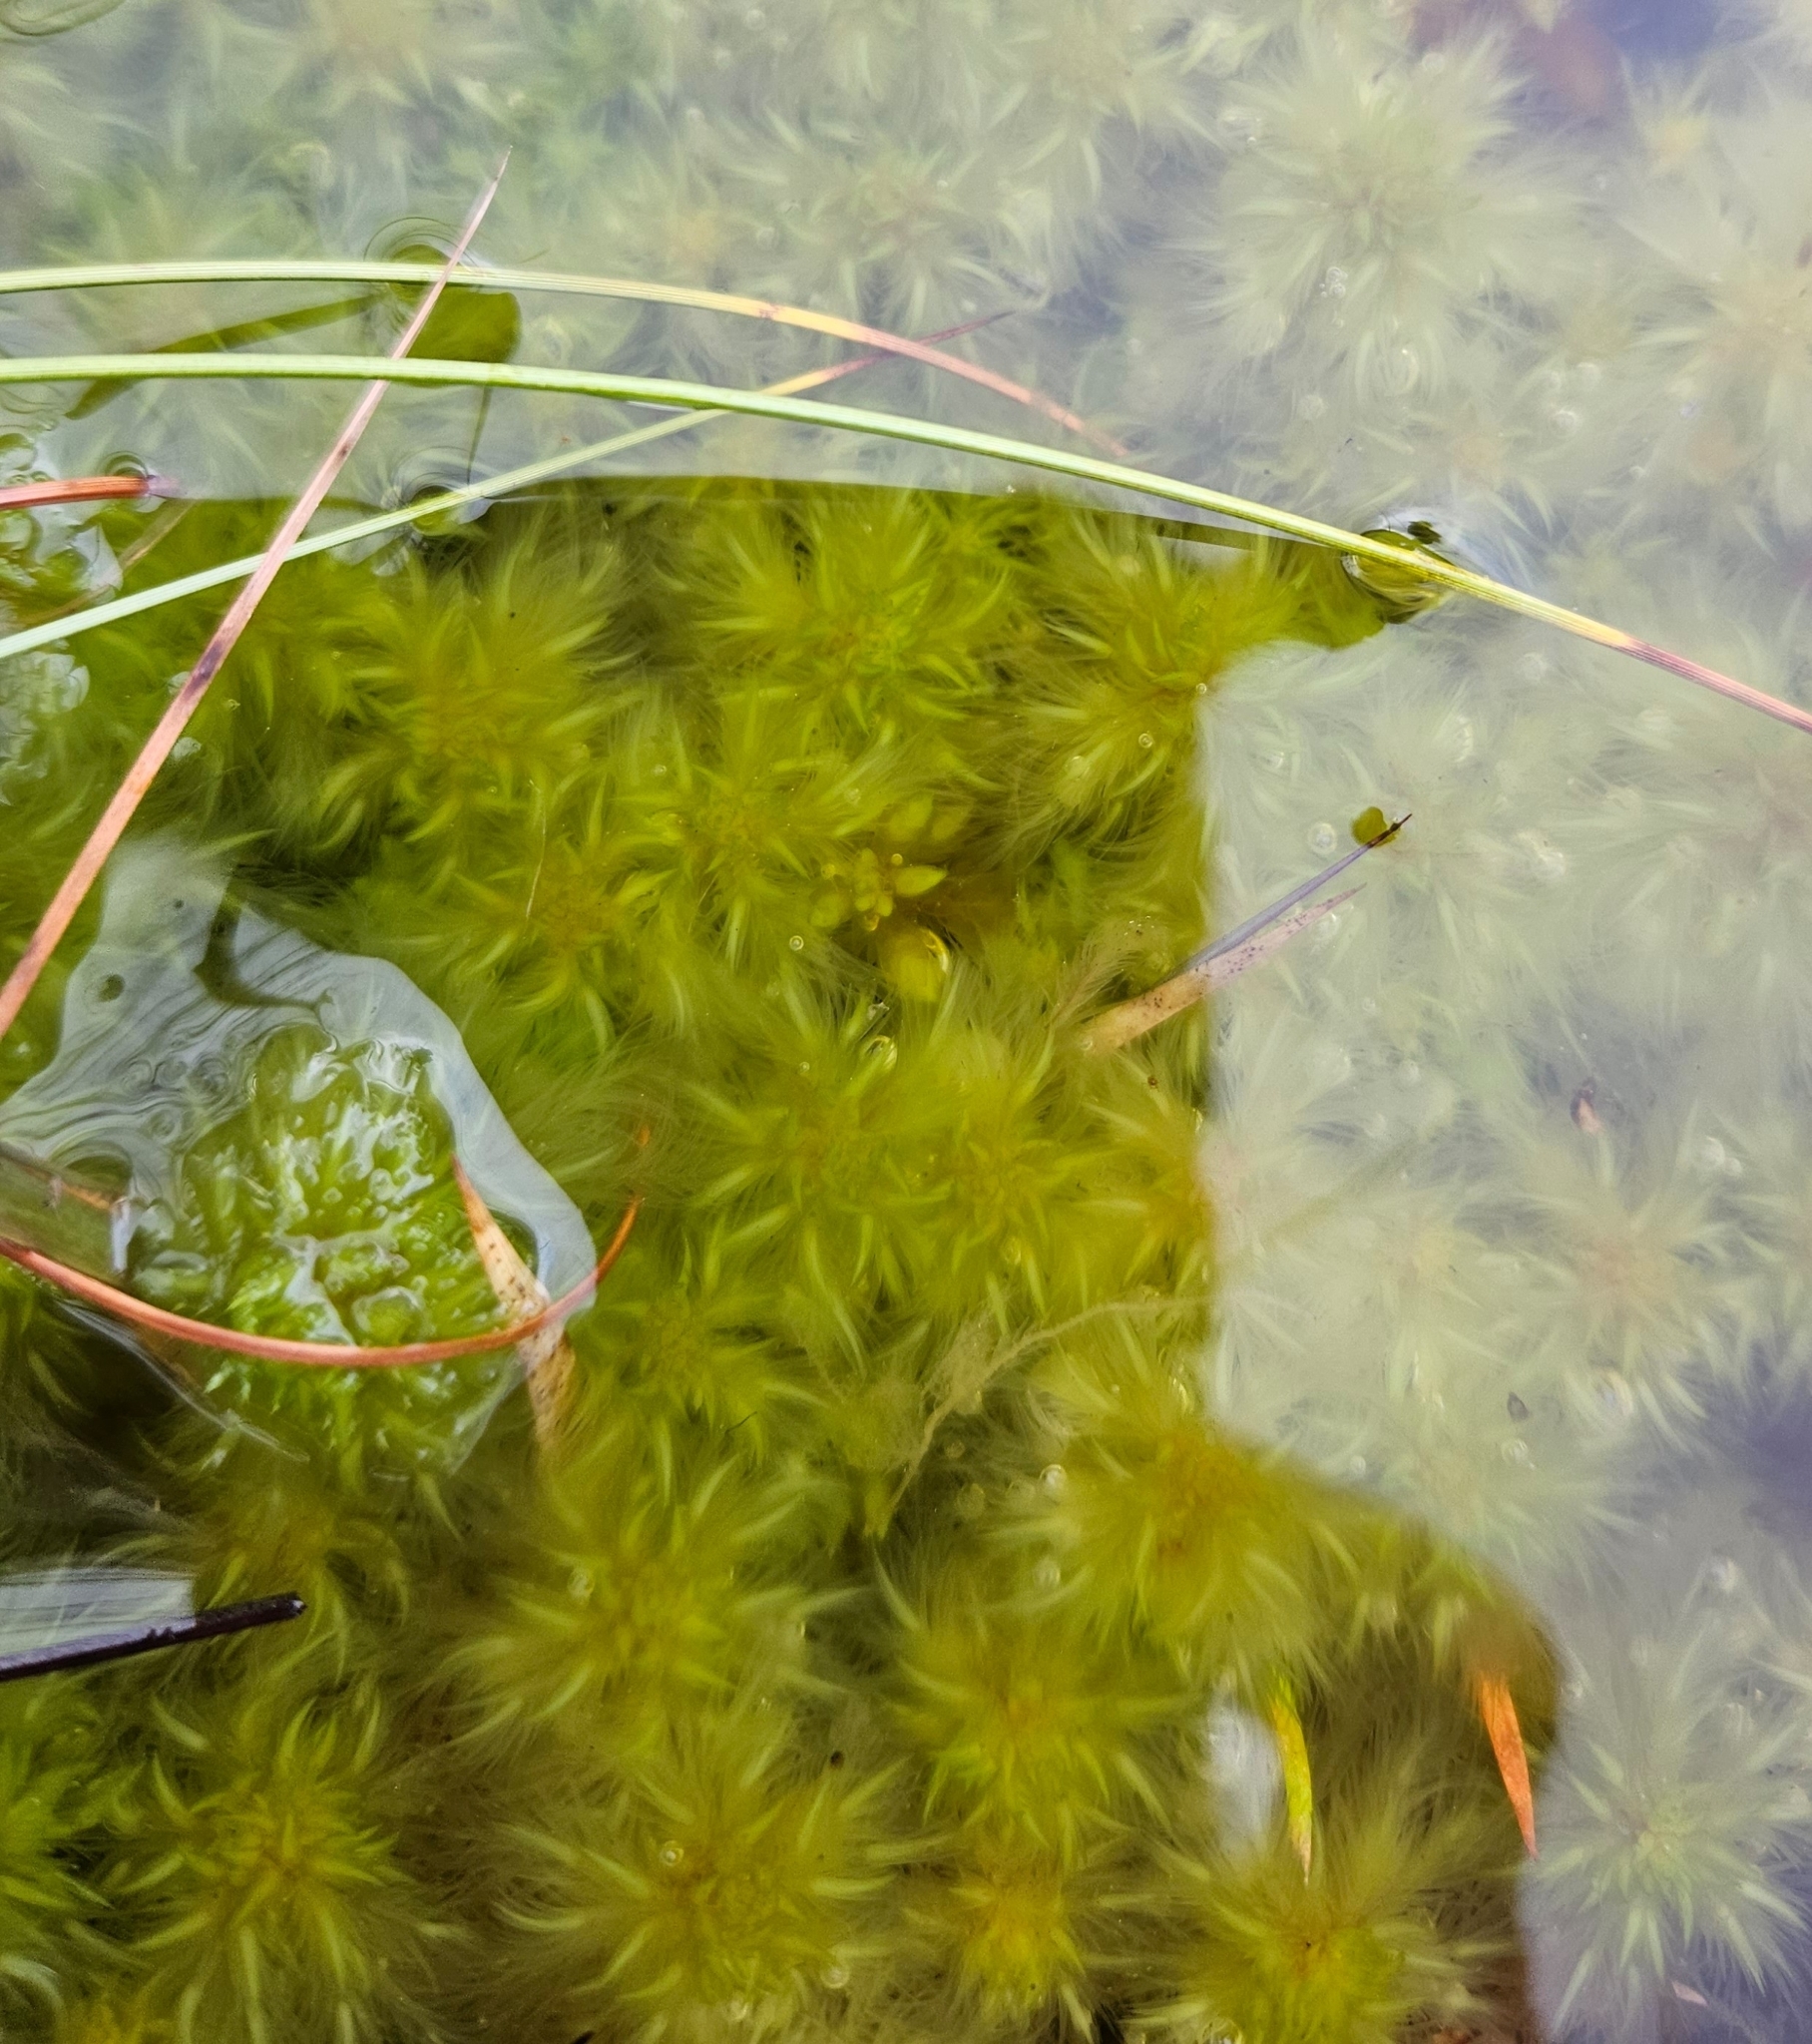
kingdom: Plantae
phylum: Bryophyta
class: Sphagnopsida
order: Sphagnales
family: Sphagnaceae
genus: Sphagnum
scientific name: Sphagnum cuspidatum
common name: Feathery peat moss
